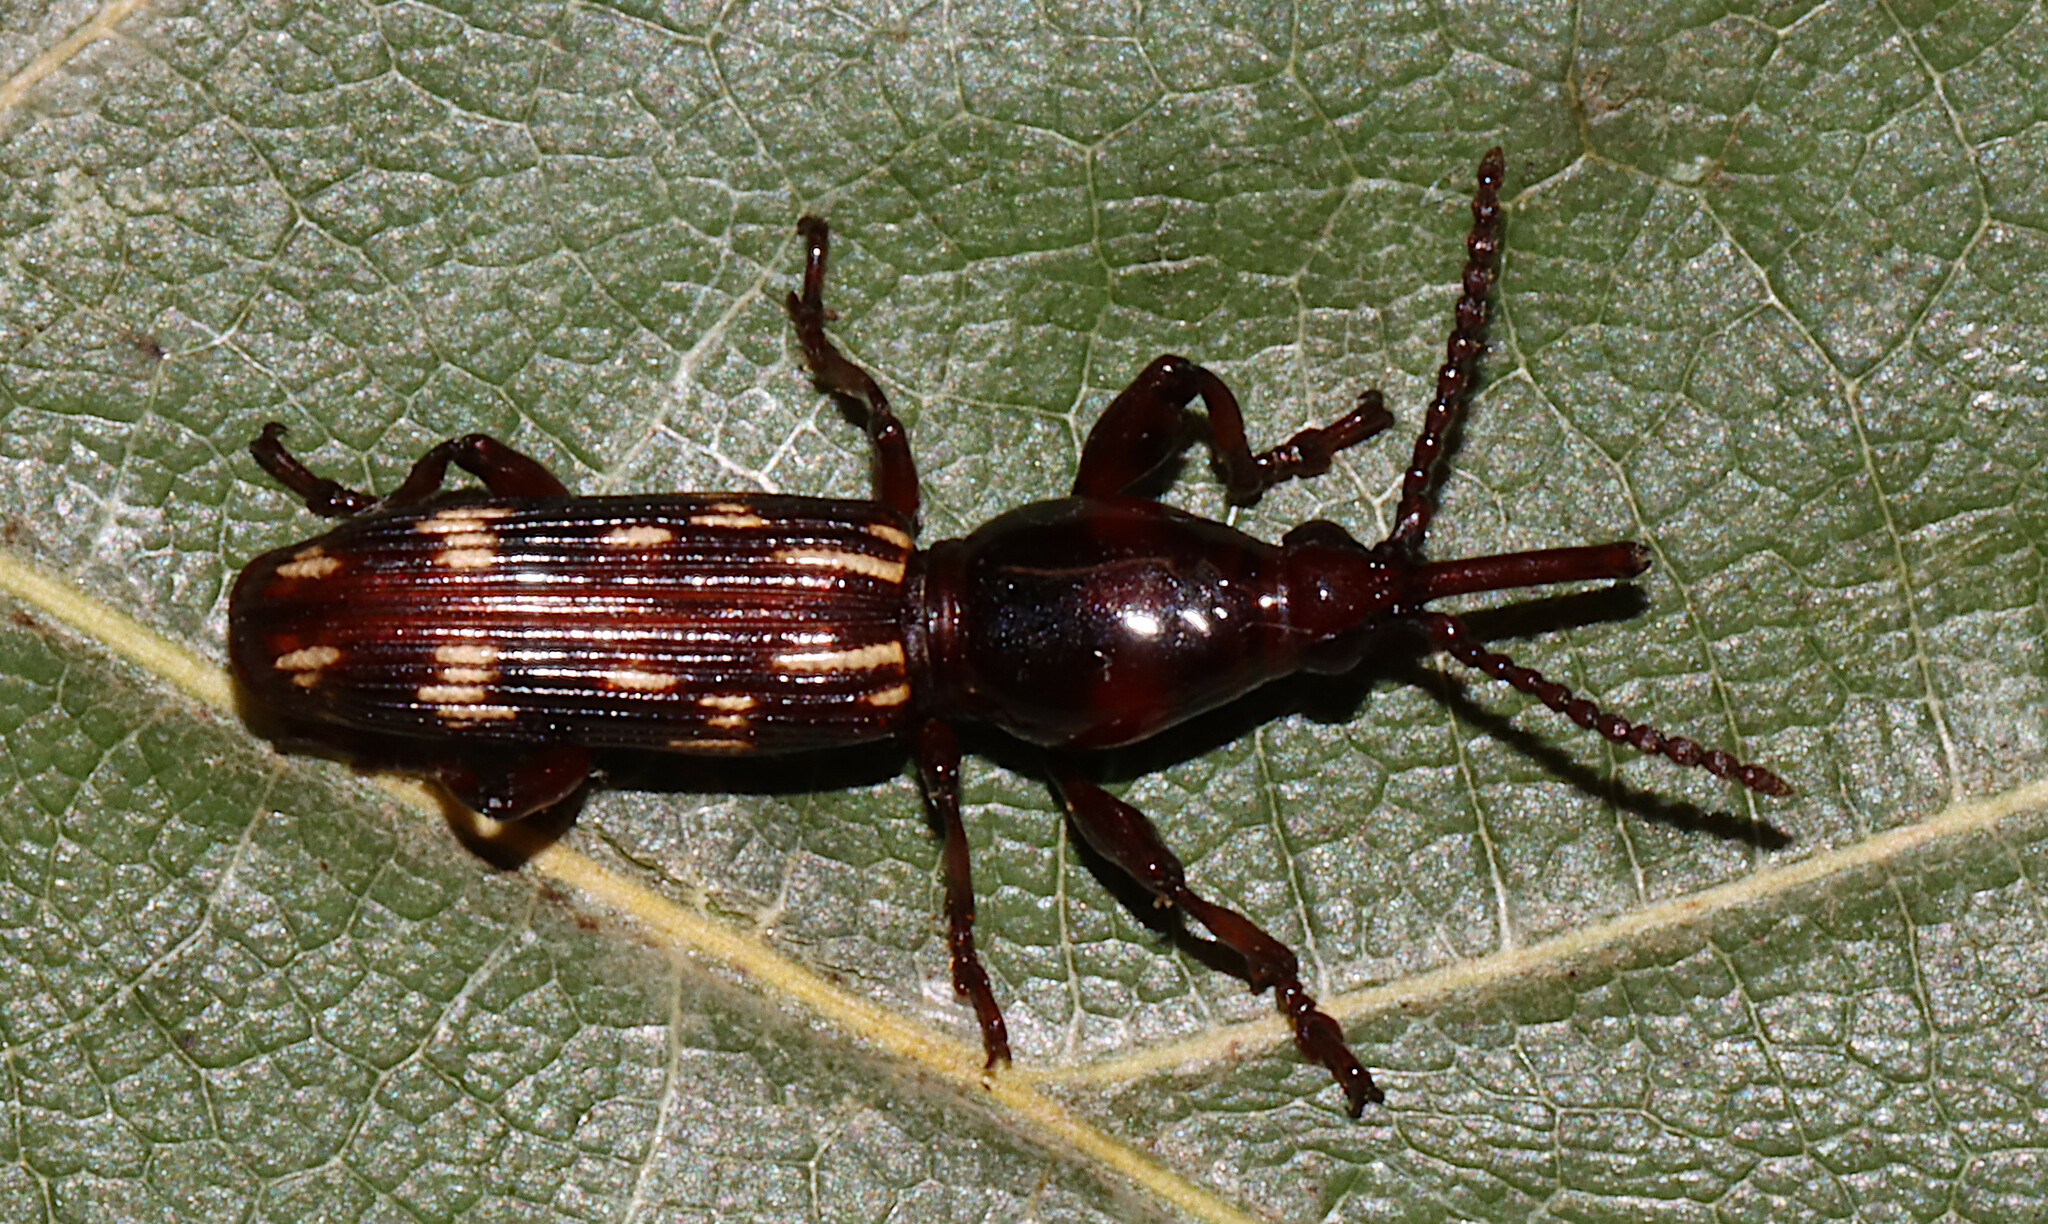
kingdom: Animalia
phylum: Arthropoda
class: Insecta
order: Coleoptera
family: Brentidae
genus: Arrenodes
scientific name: Arrenodes minutus
